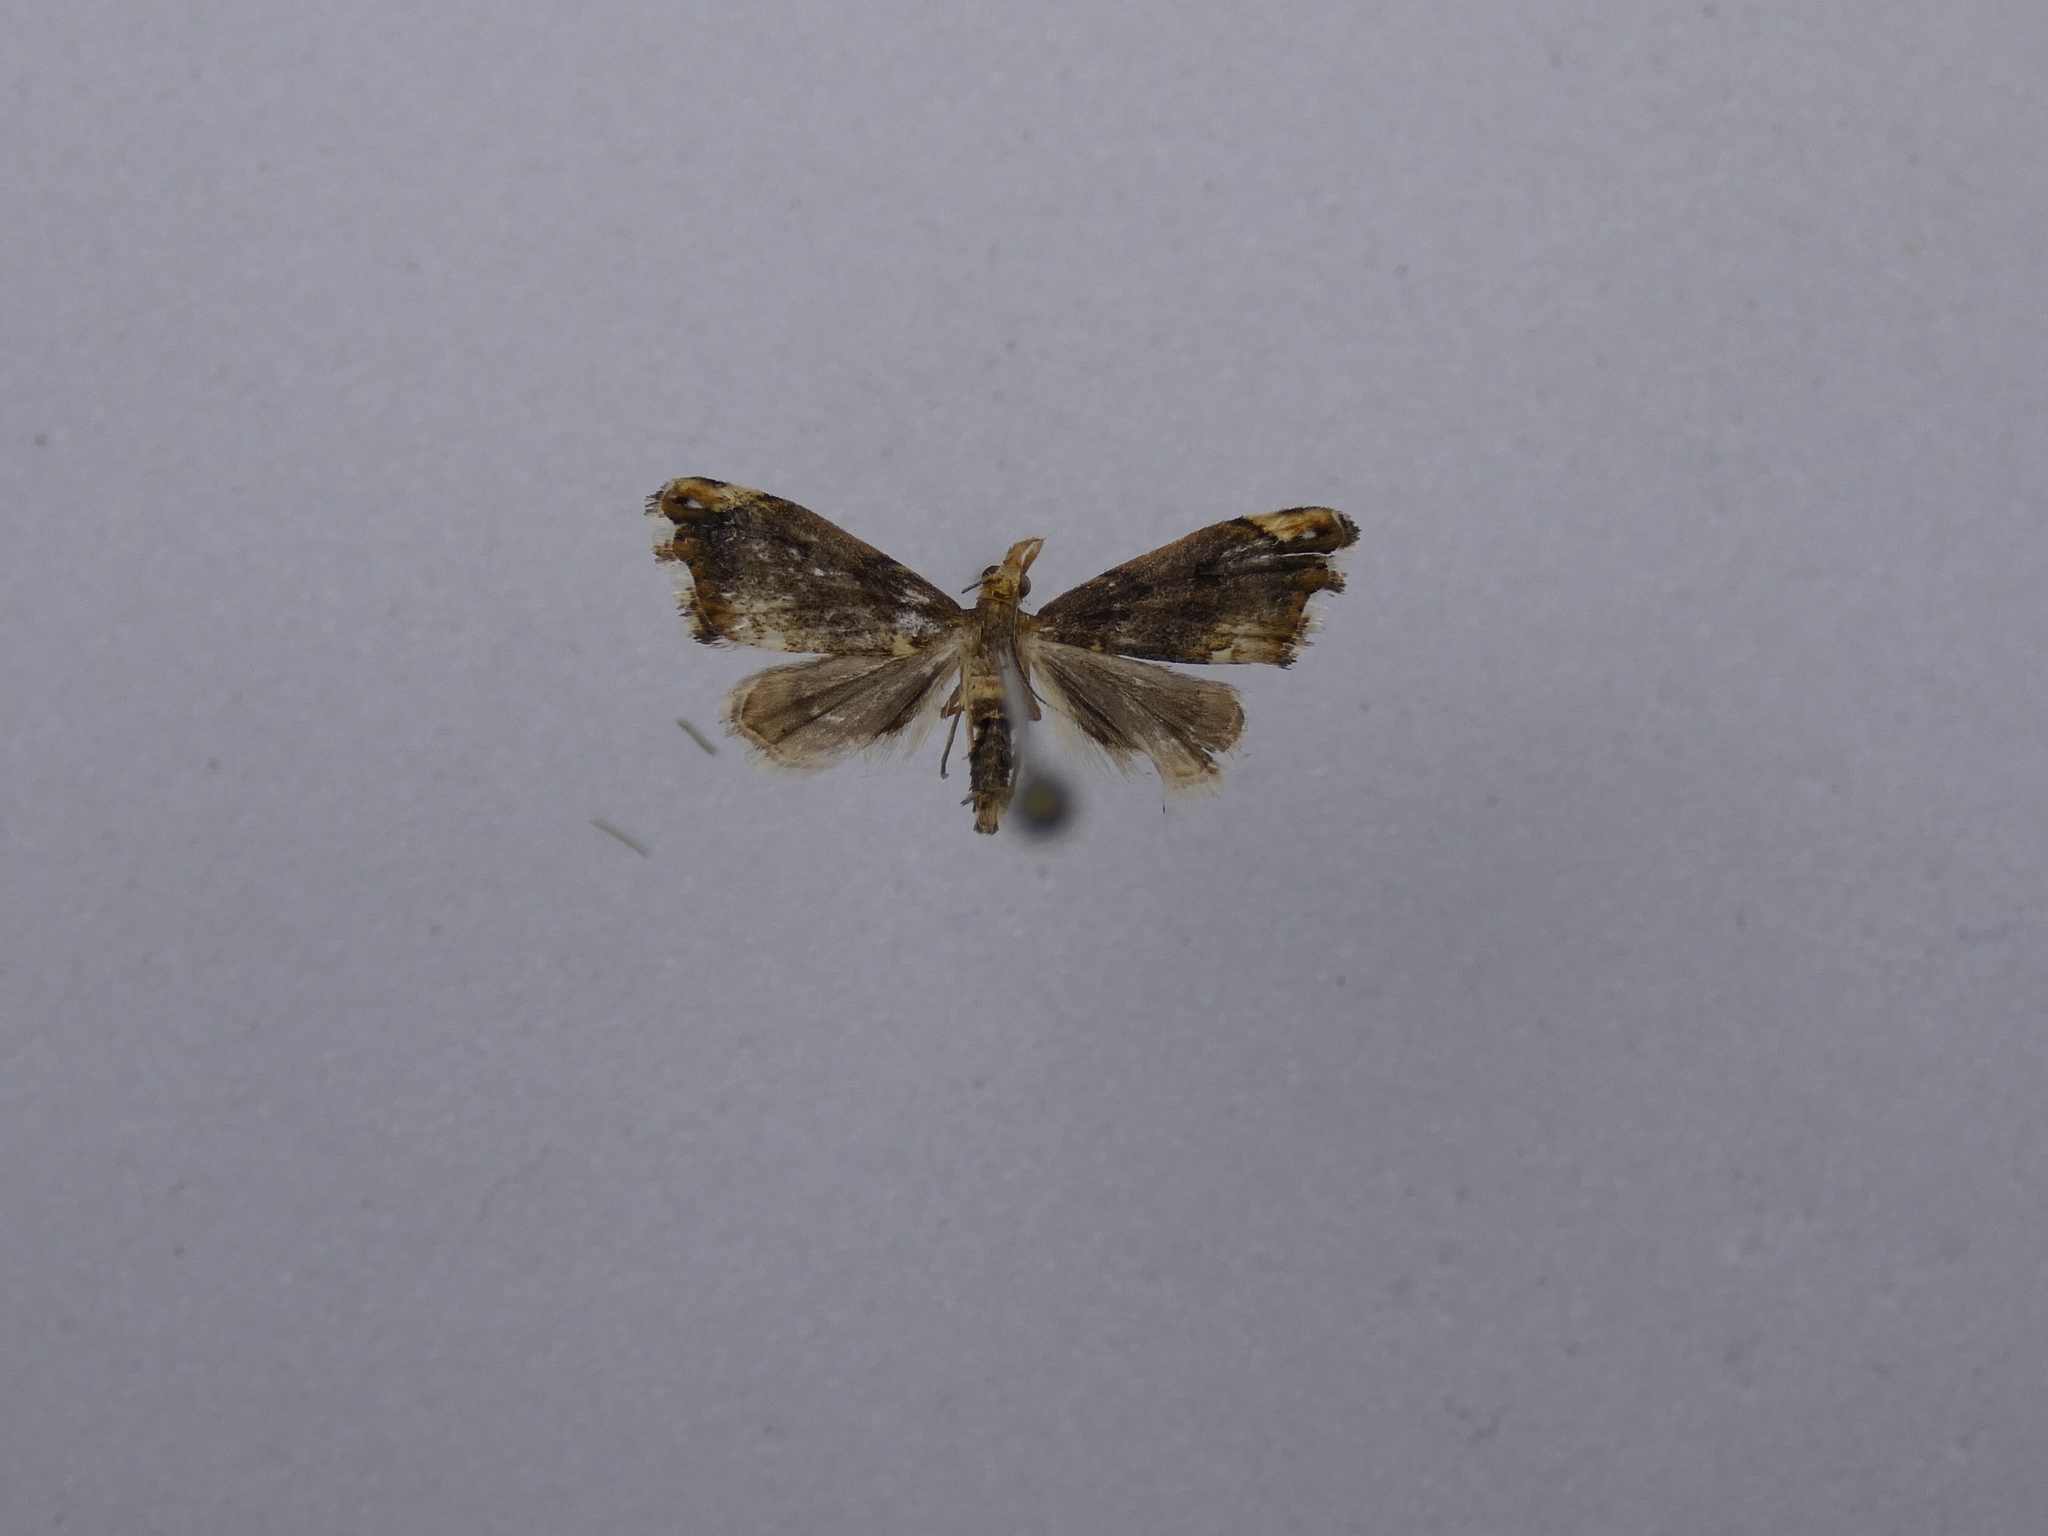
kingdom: Animalia
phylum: Arthropoda
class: Insecta
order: Lepidoptera
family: Crambidae
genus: Glaucocharis
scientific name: Glaucocharis pyrsophanes
